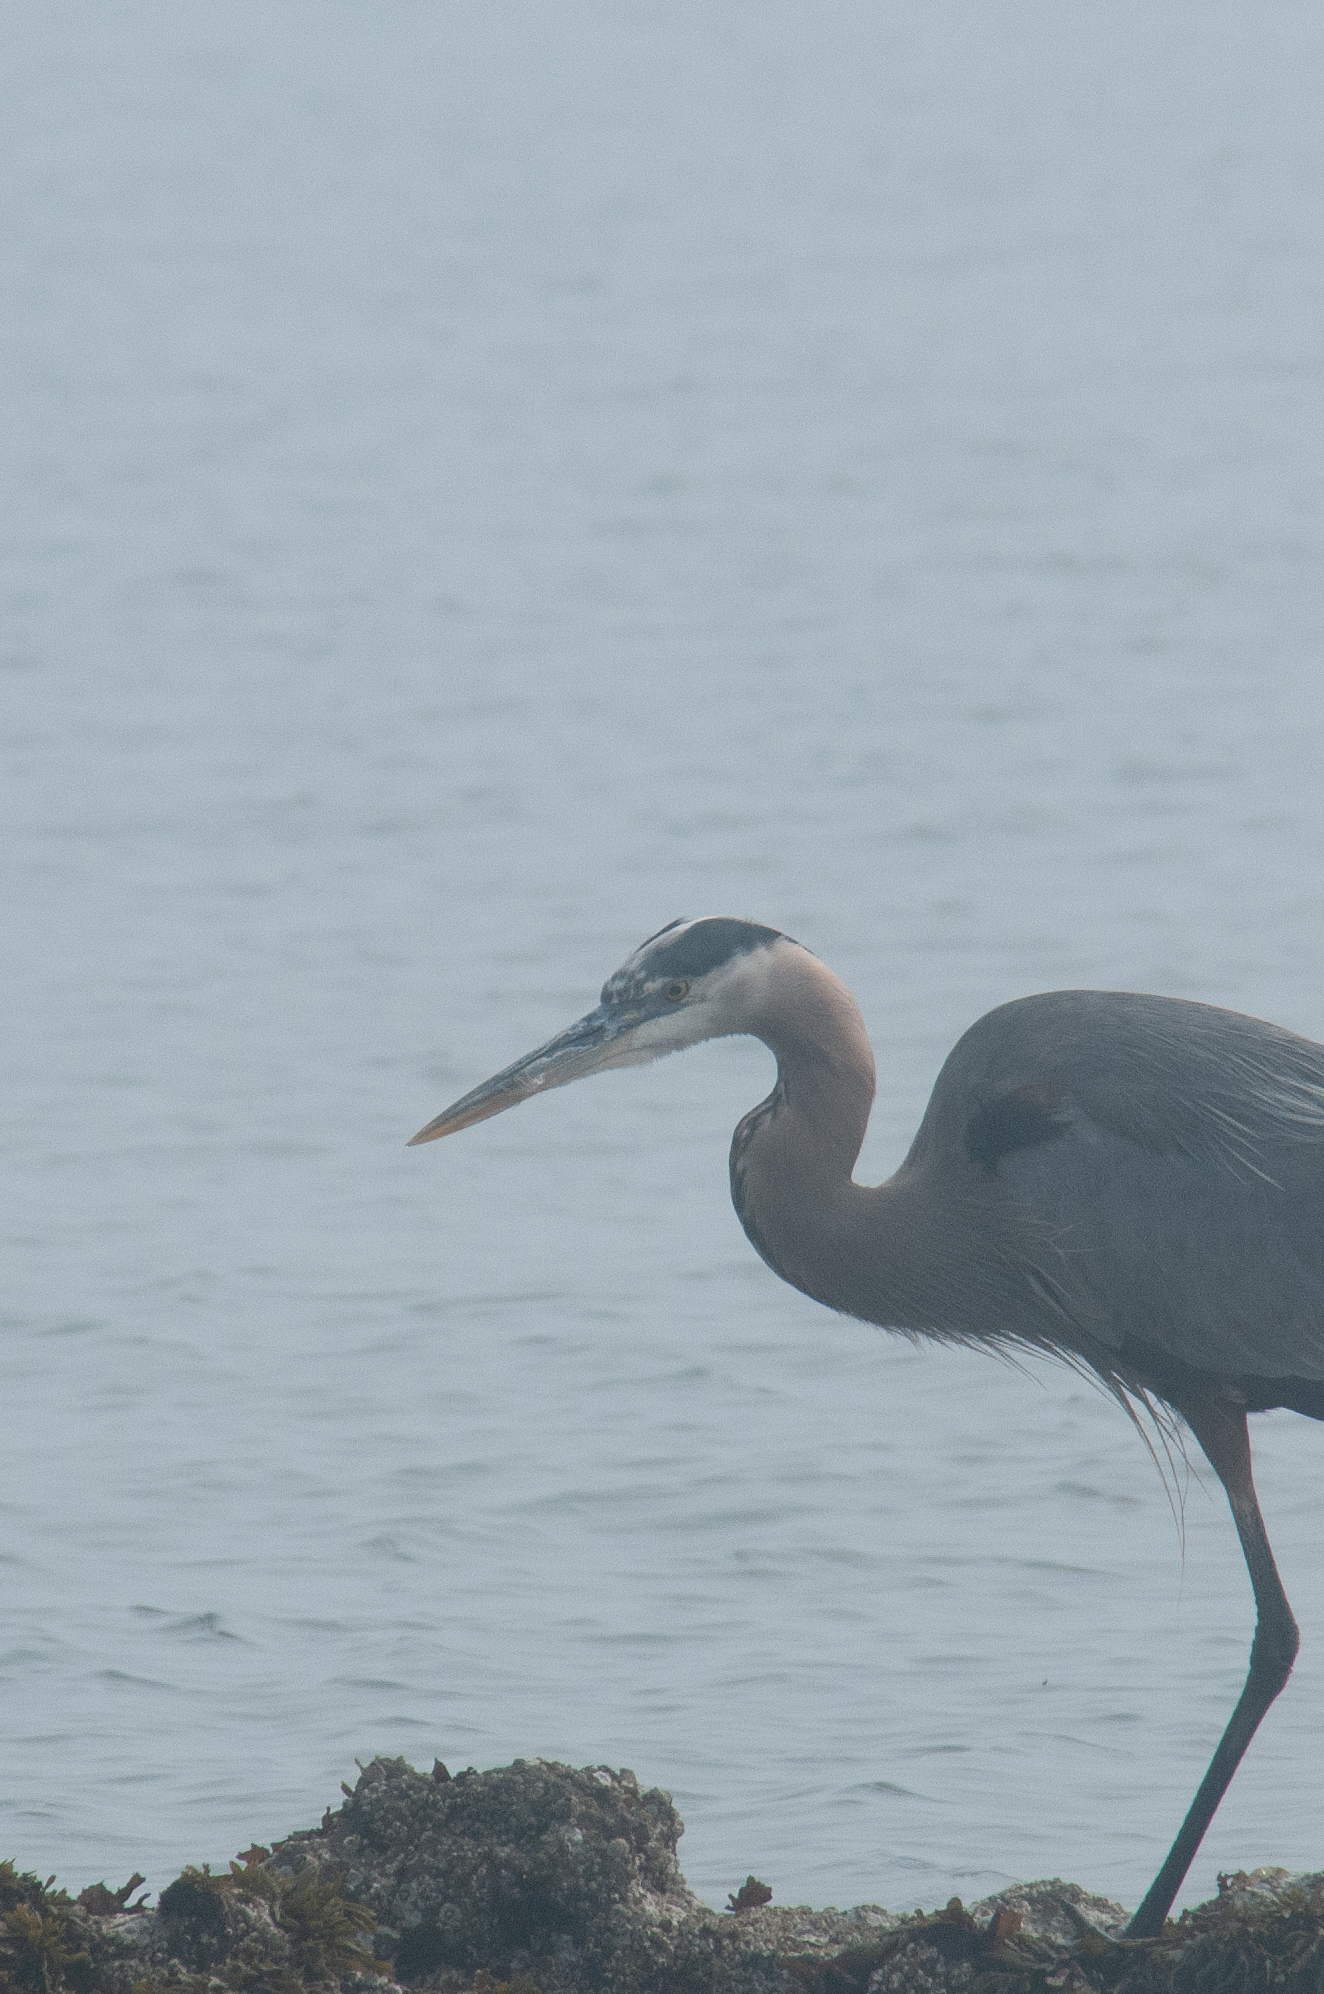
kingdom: Animalia
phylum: Chordata
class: Aves
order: Pelecaniformes
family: Ardeidae
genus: Ardea
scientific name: Ardea herodias
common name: Great blue heron
